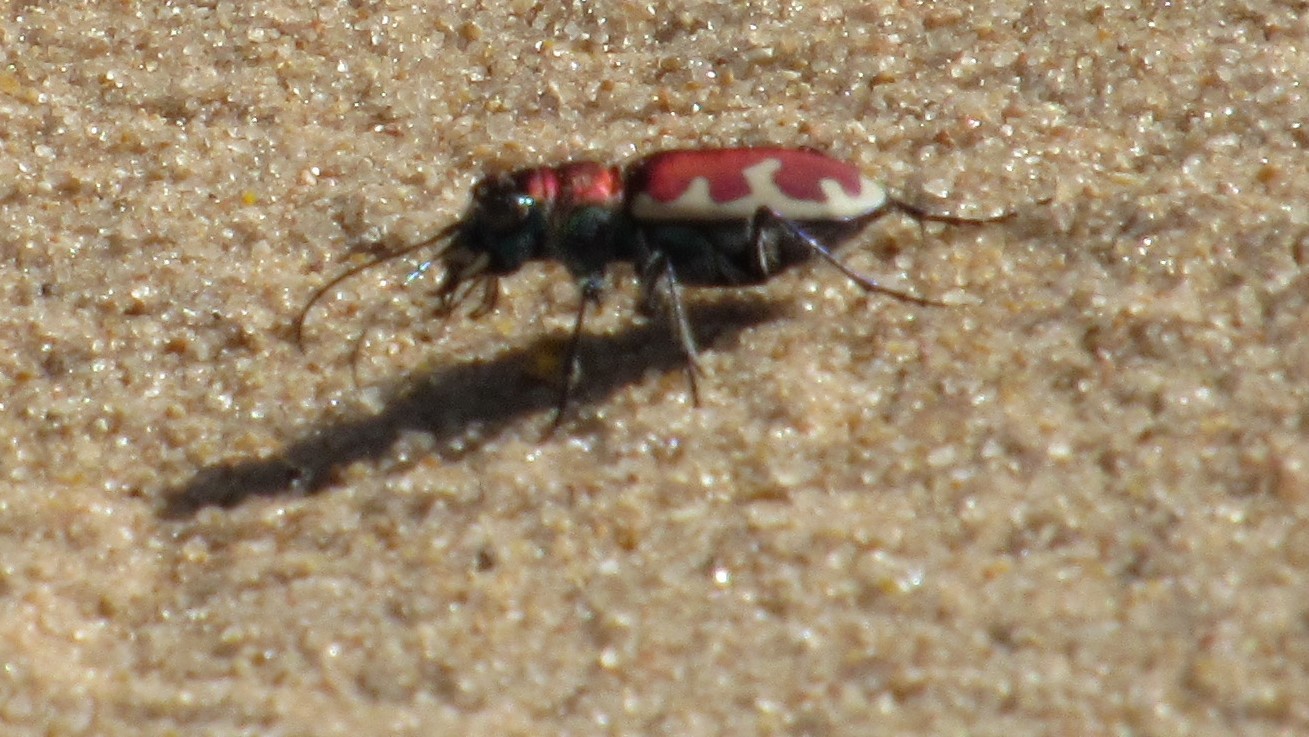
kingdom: Animalia
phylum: Arthropoda
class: Insecta
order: Coleoptera
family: Carabidae
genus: Cicindela
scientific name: Cicindela formosa
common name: Big sand tiger beetle
